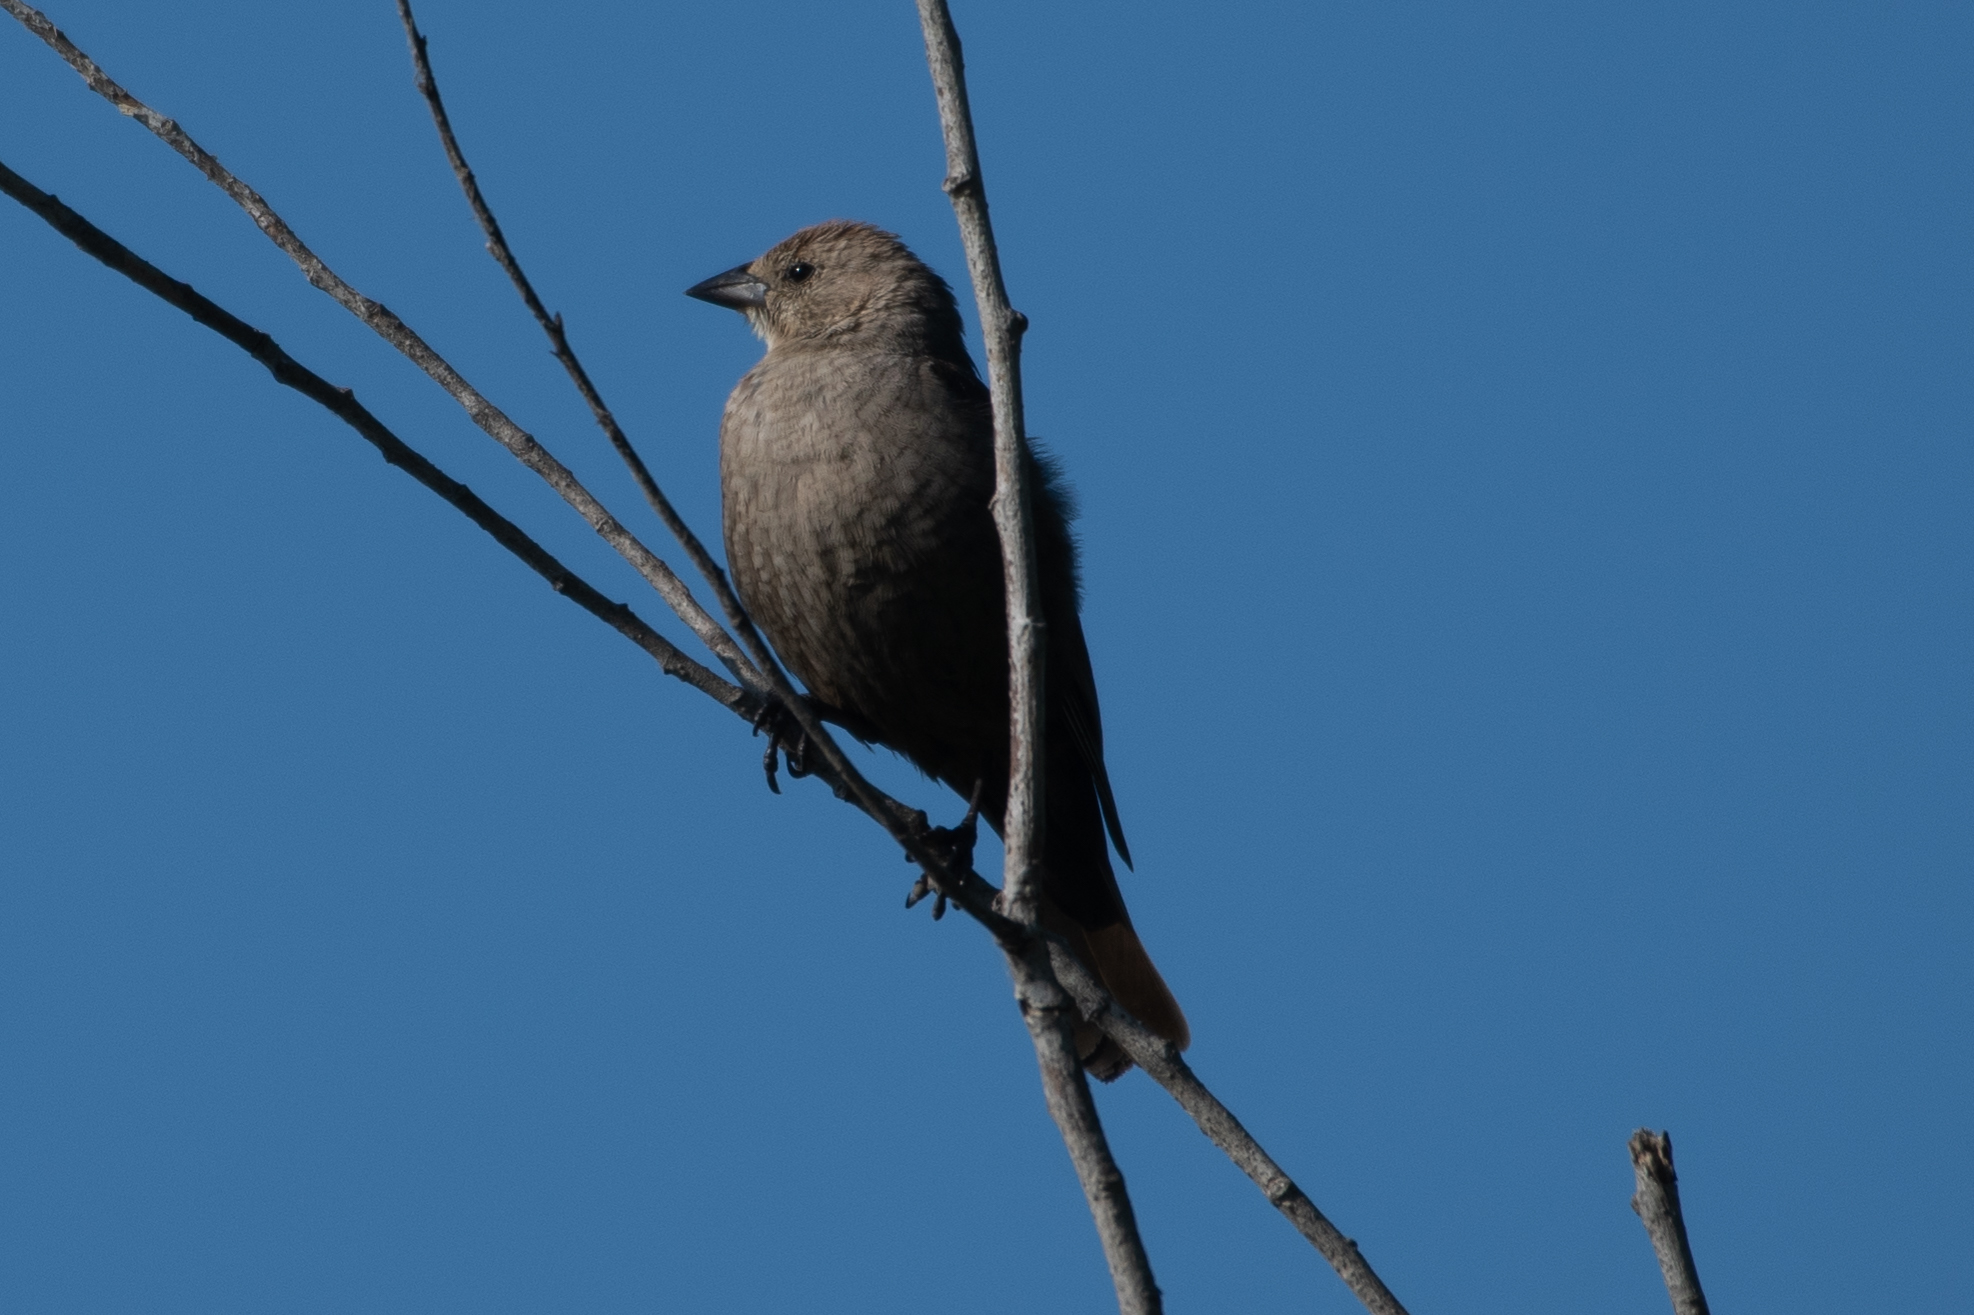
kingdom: Animalia
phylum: Chordata
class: Aves
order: Passeriformes
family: Icteridae
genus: Molothrus
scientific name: Molothrus ater
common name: Brown-headed cowbird
